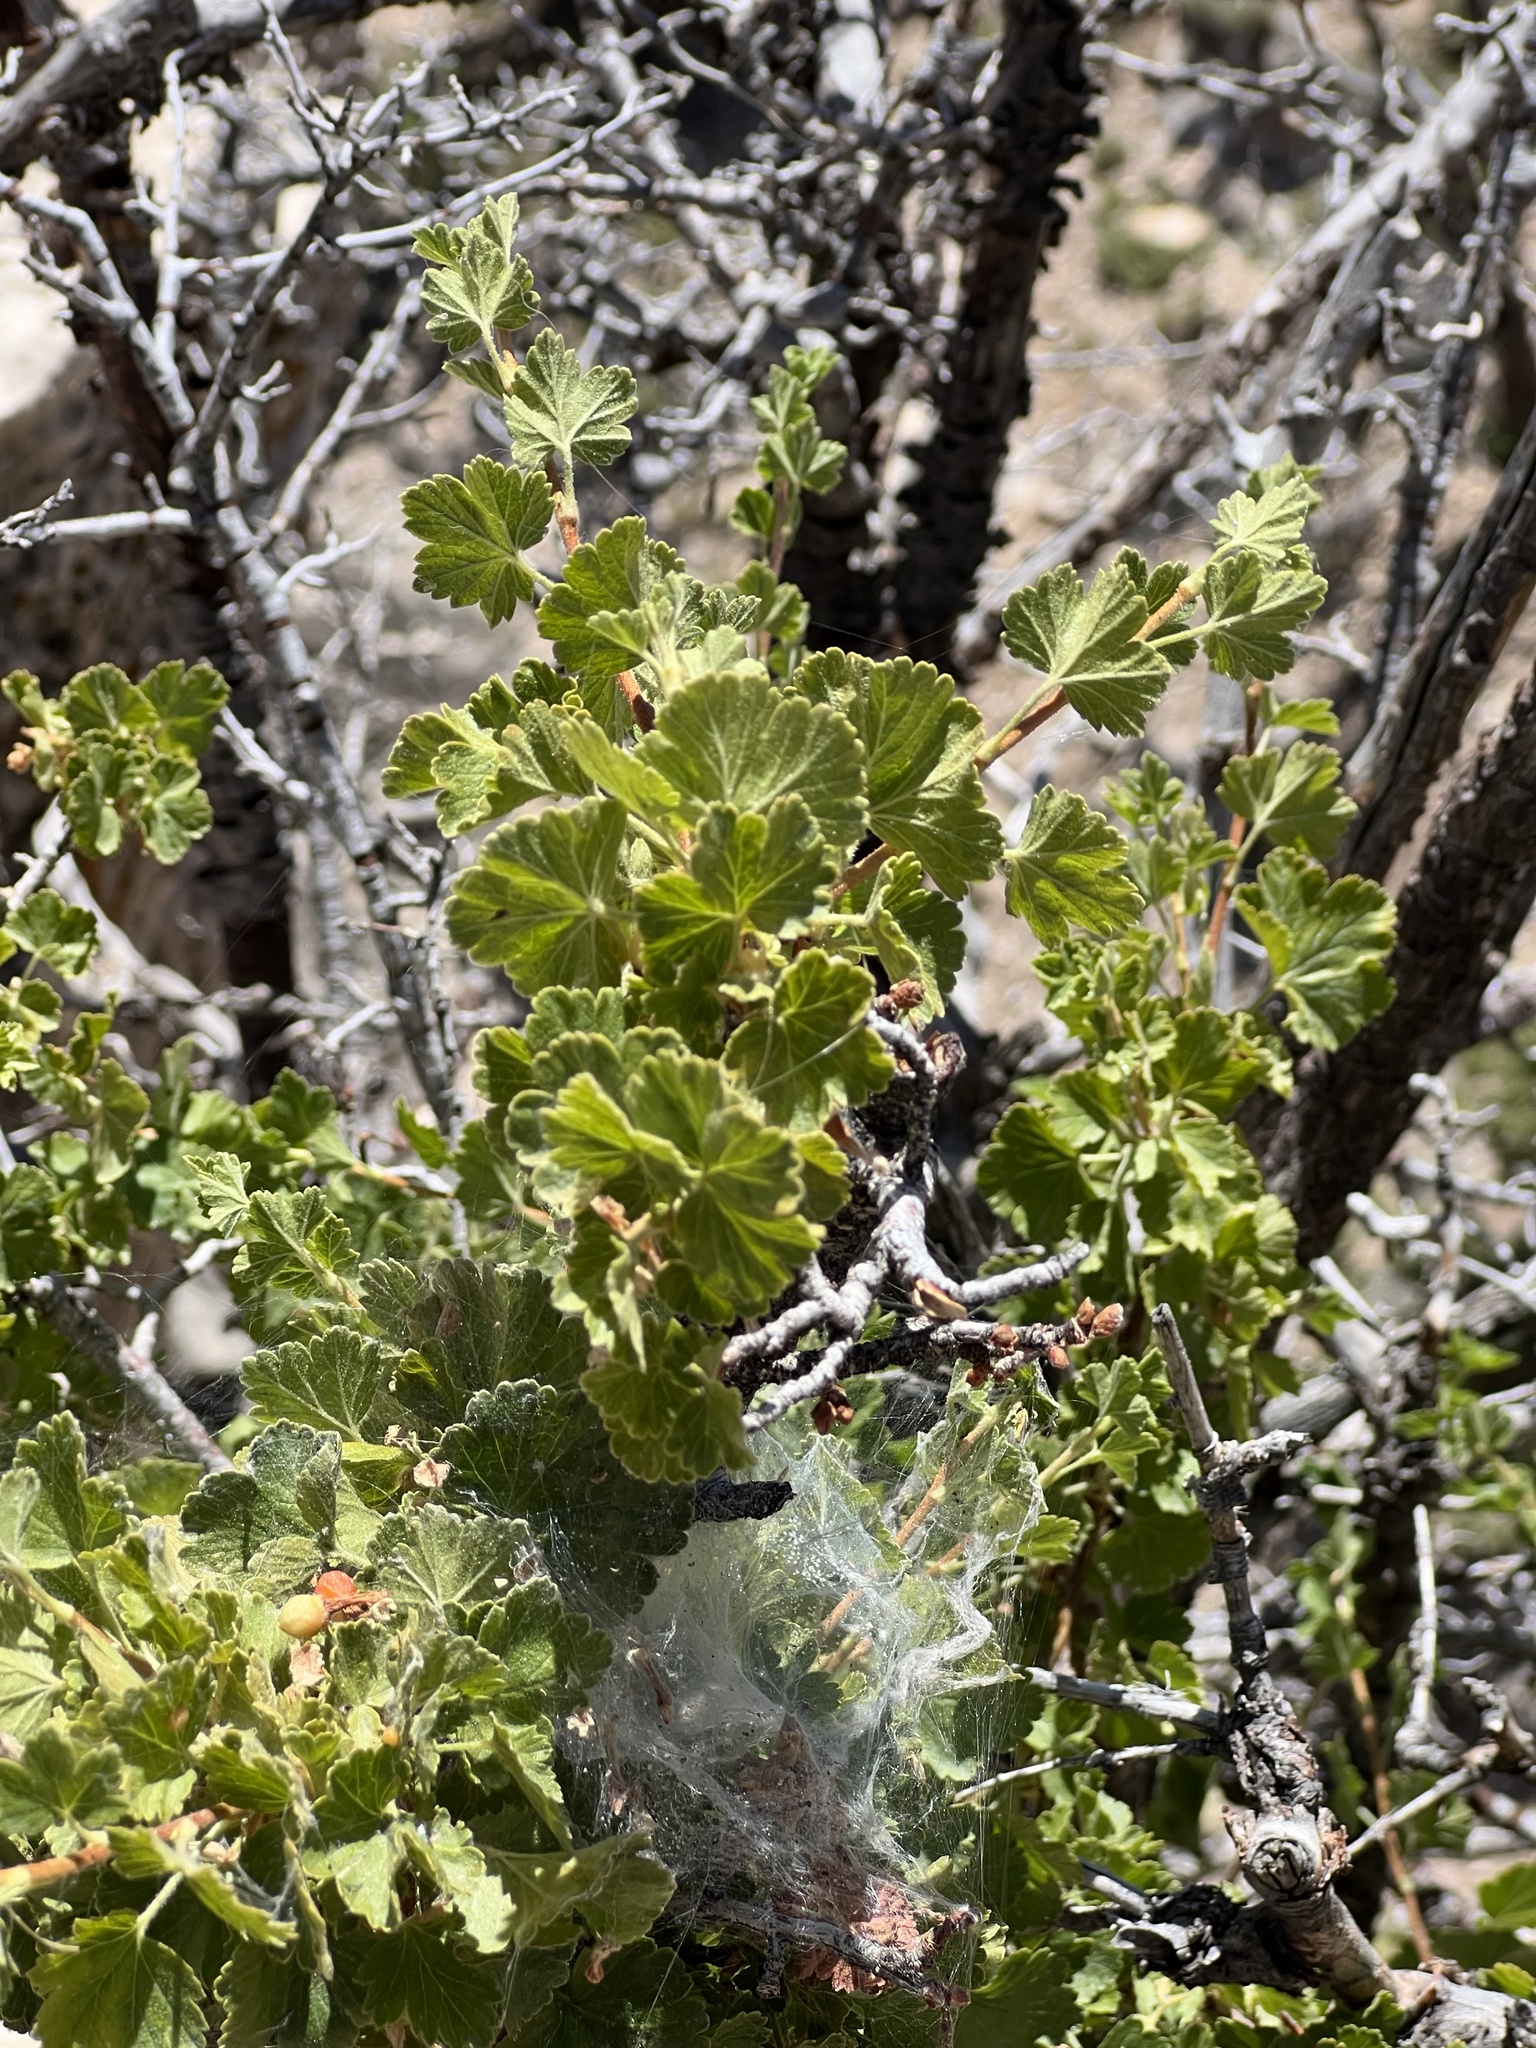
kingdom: Plantae
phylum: Tracheophyta
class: Magnoliopsida
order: Saxifragales
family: Grossulariaceae
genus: Ribes
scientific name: Ribes cereum
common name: Wax currant
